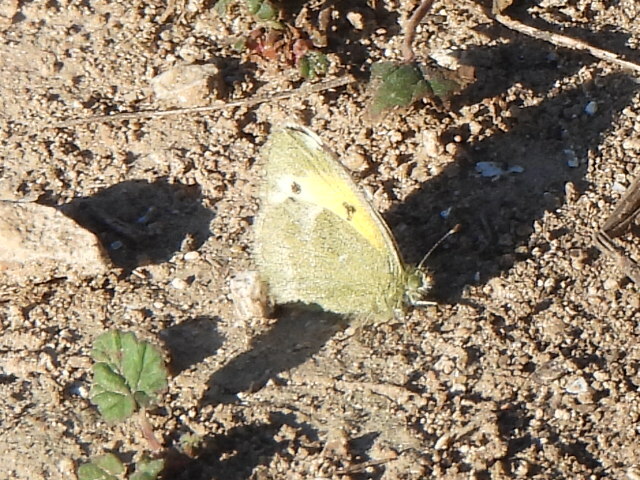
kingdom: Animalia
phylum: Arthropoda
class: Insecta
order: Lepidoptera
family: Pieridae
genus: Nathalis
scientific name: Nathalis iole
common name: Dainty sulphur
